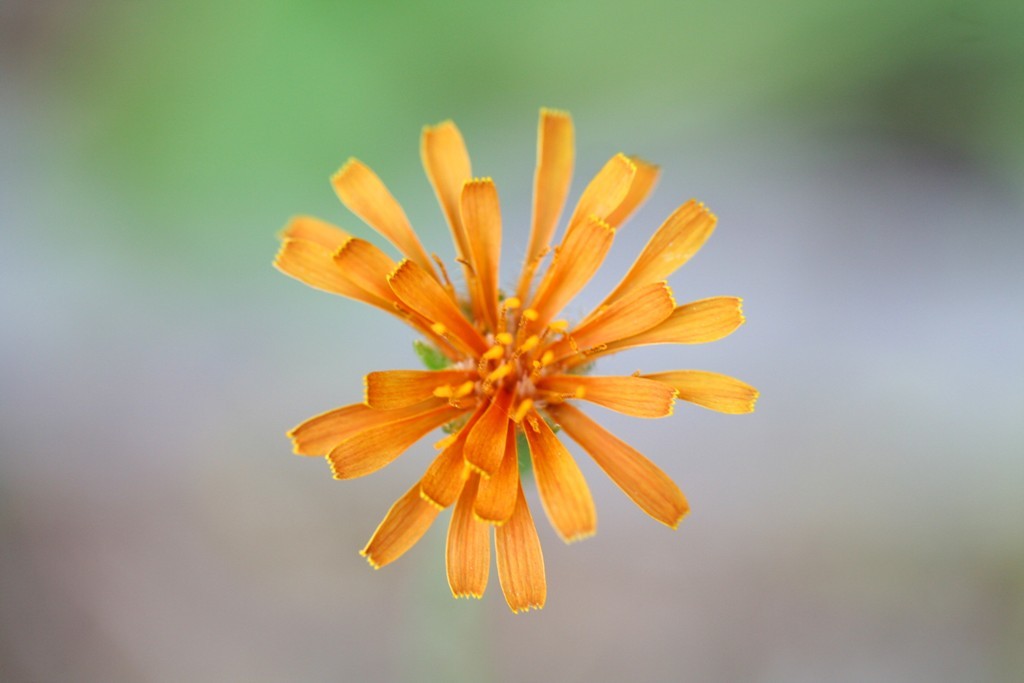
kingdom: Plantae
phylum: Tracheophyta
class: Magnoliopsida
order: Asterales
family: Asteraceae
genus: Agoseris
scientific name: Agoseris aurantiaca
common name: Mountain agoseris
